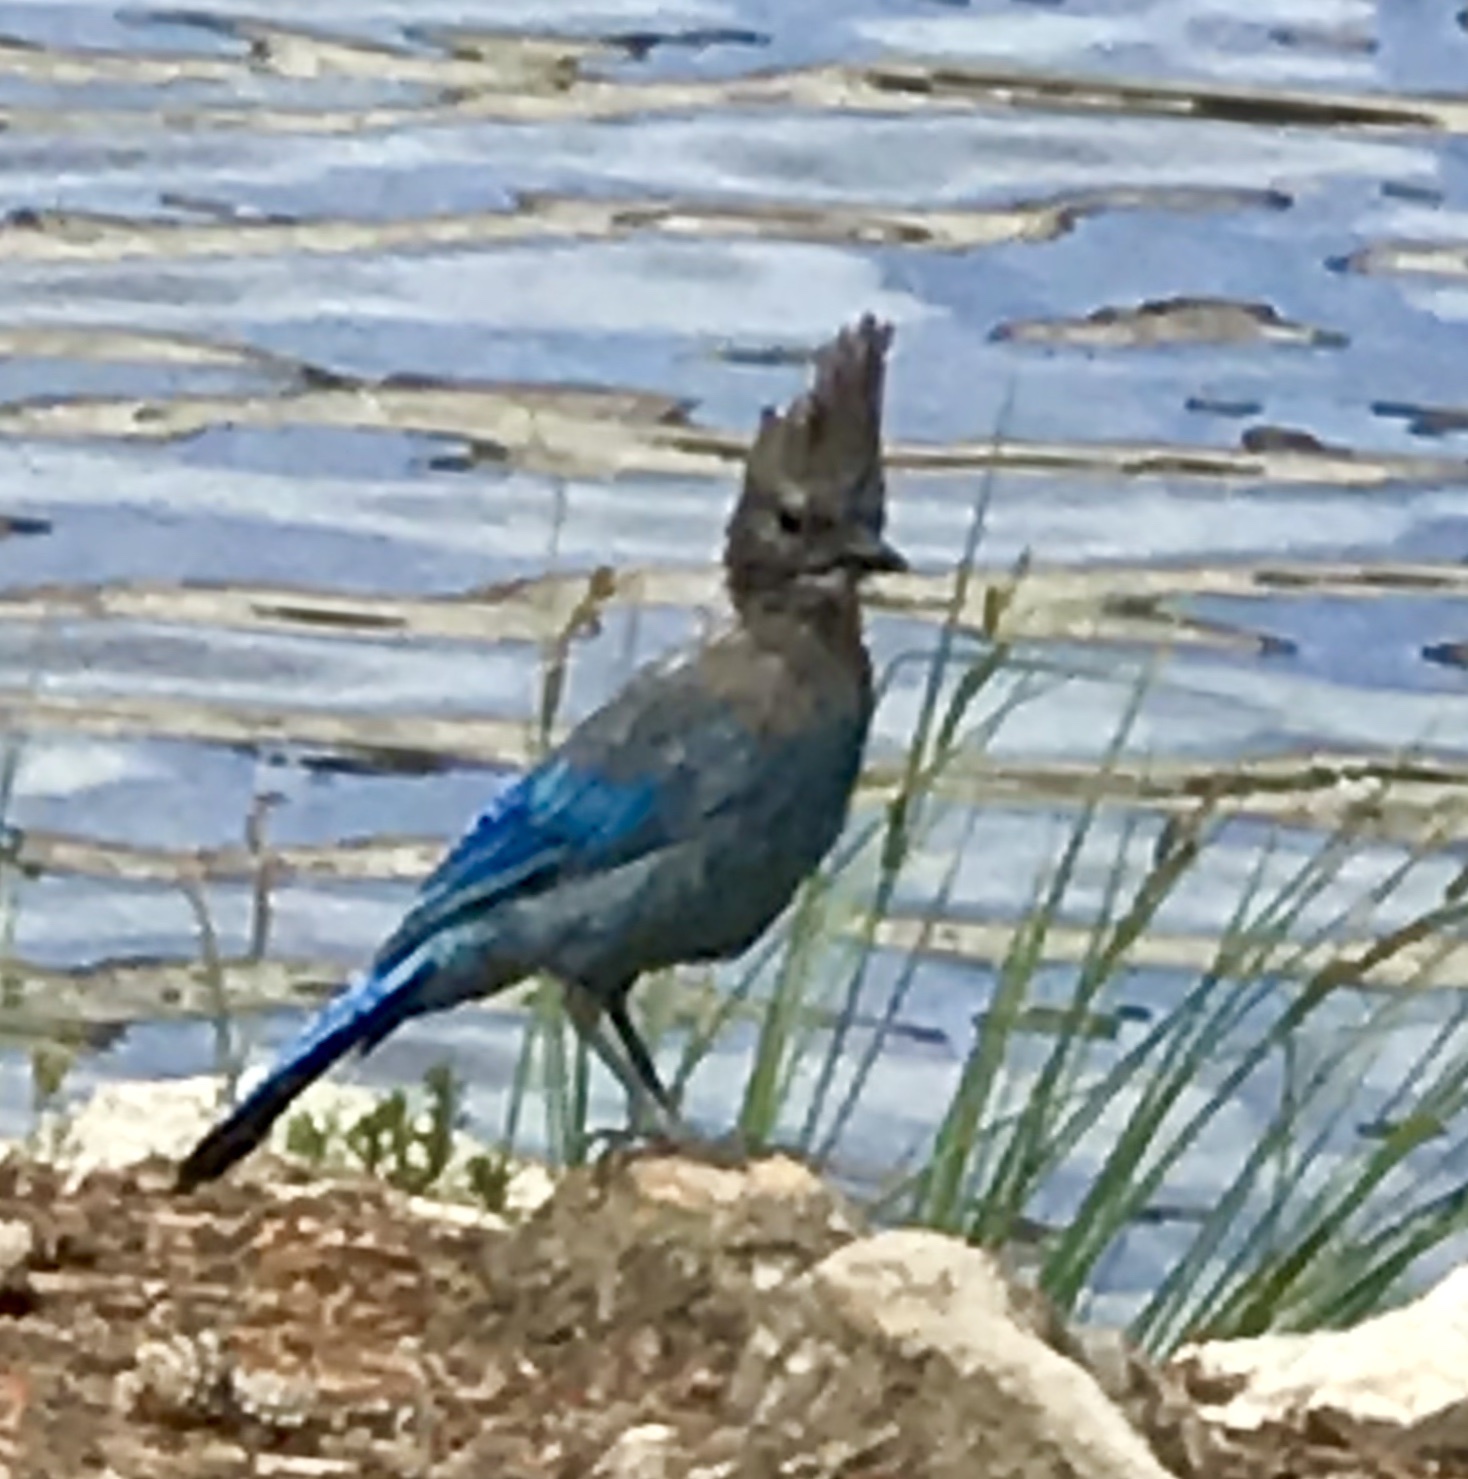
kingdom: Animalia
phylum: Chordata
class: Aves
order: Passeriformes
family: Corvidae
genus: Cyanocitta
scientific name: Cyanocitta stelleri
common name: Steller's jay
